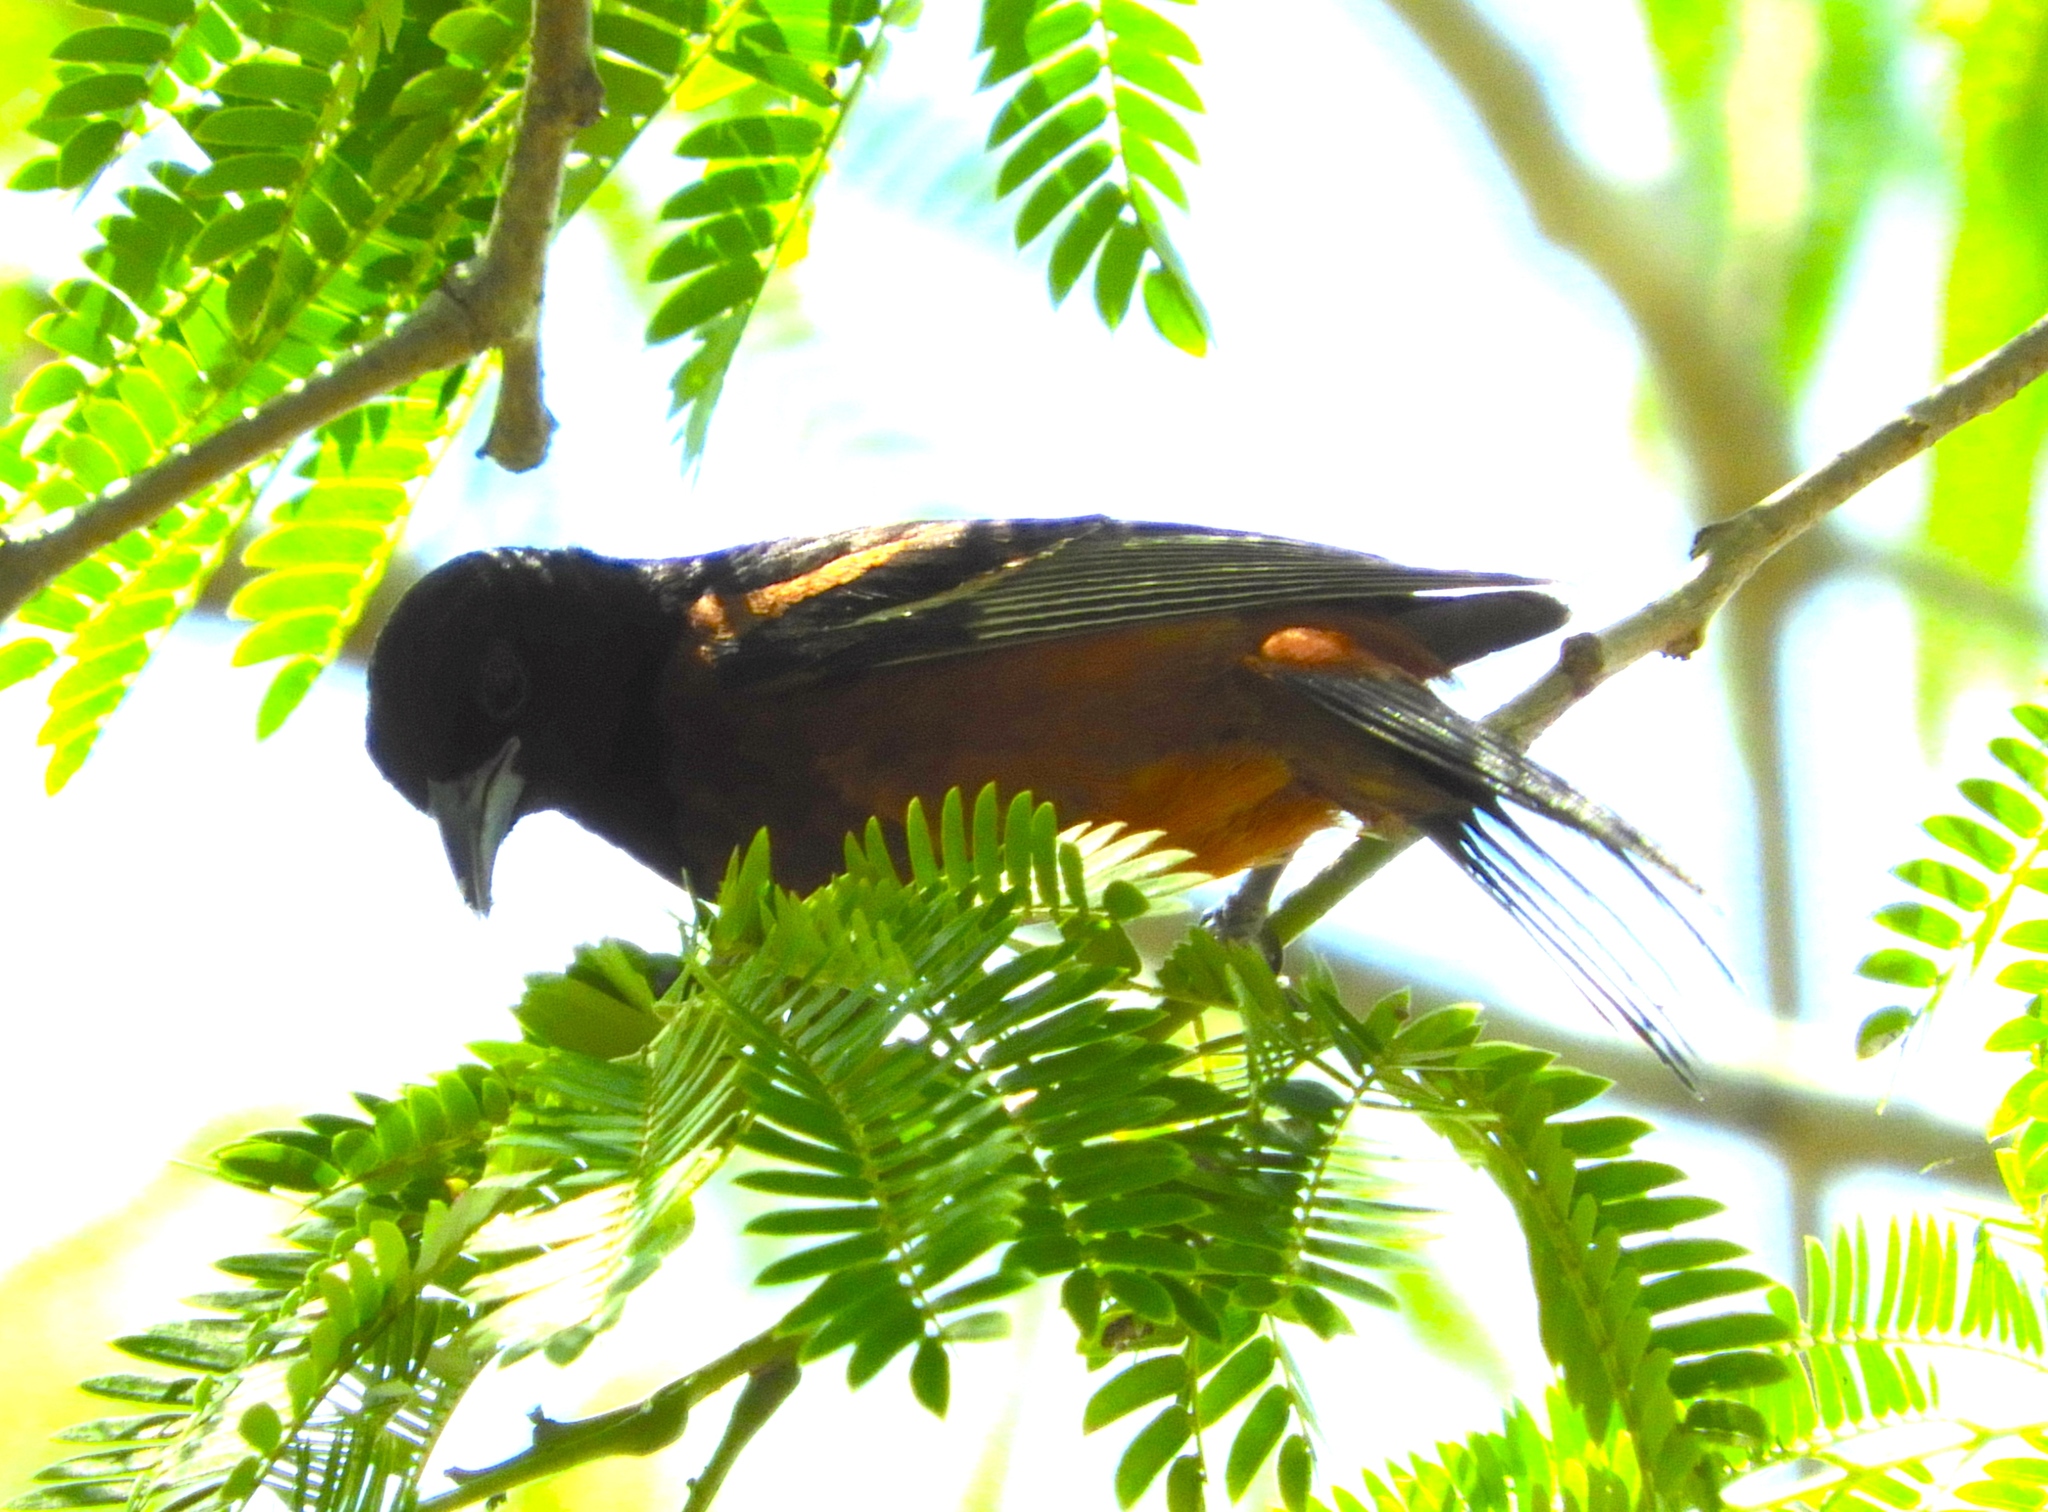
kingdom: Animalia
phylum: Chordata
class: Aves
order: Passeriformes
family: Icteridae
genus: Icterus
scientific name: Icterus spurius
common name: Orchard oriole
